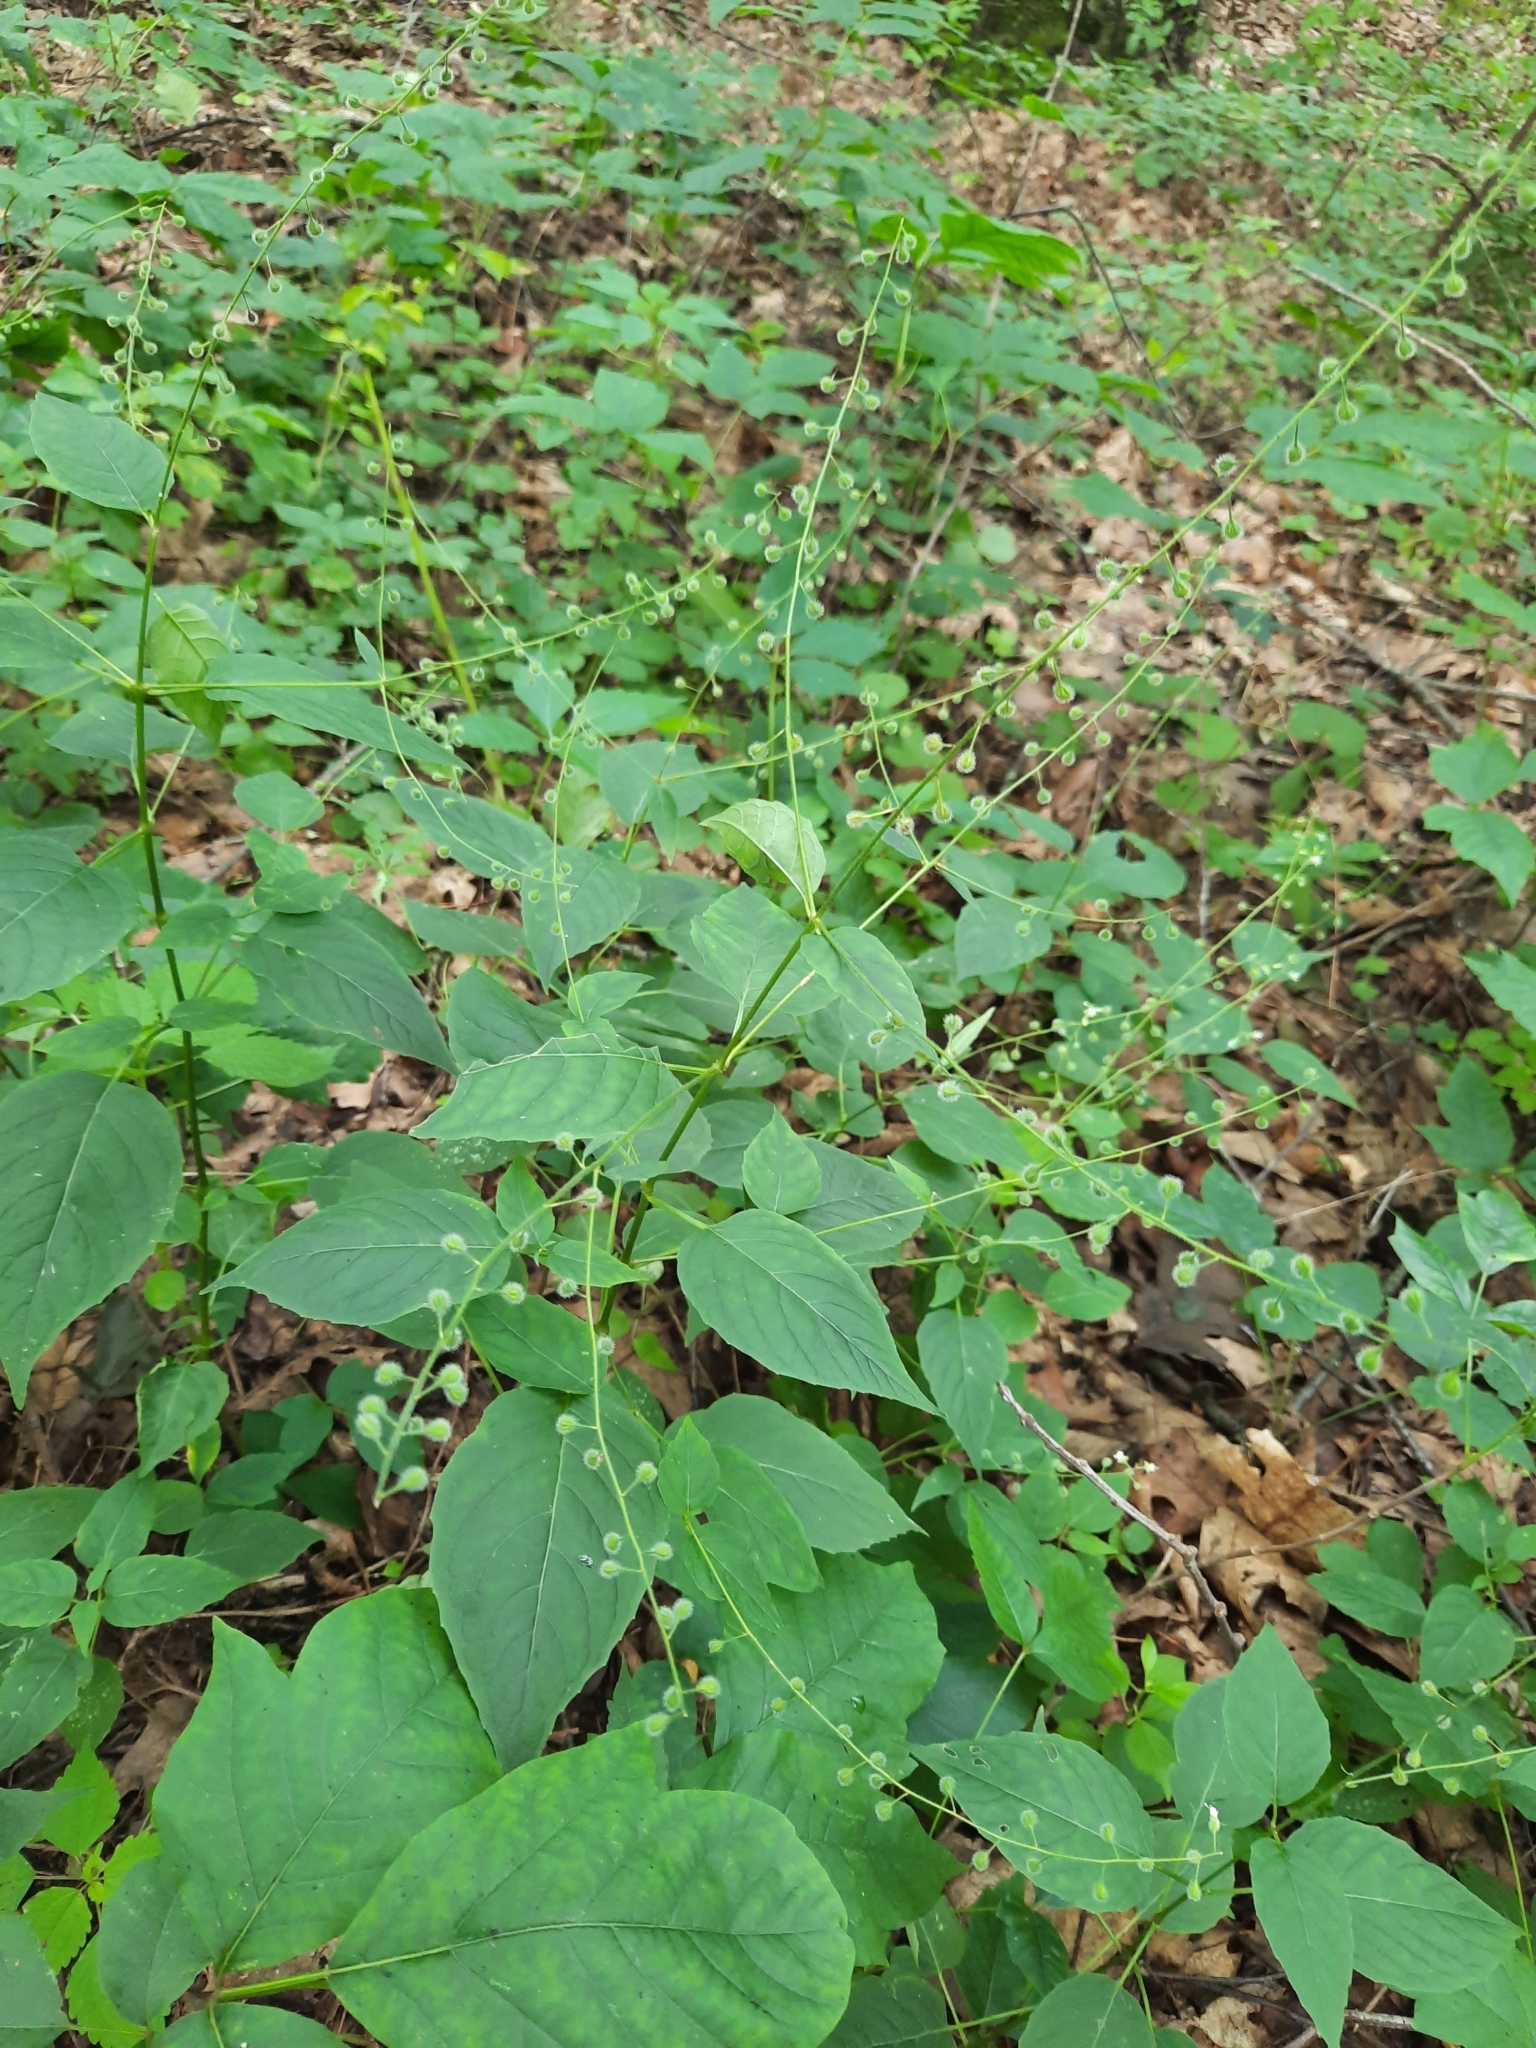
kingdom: Plantae
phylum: Tracheophyta
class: Magnoliopsida
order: Myrtales
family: Onagraceae
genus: Circaea
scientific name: Circaea canadensis
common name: Broad-leaved enchanter's nightshade
